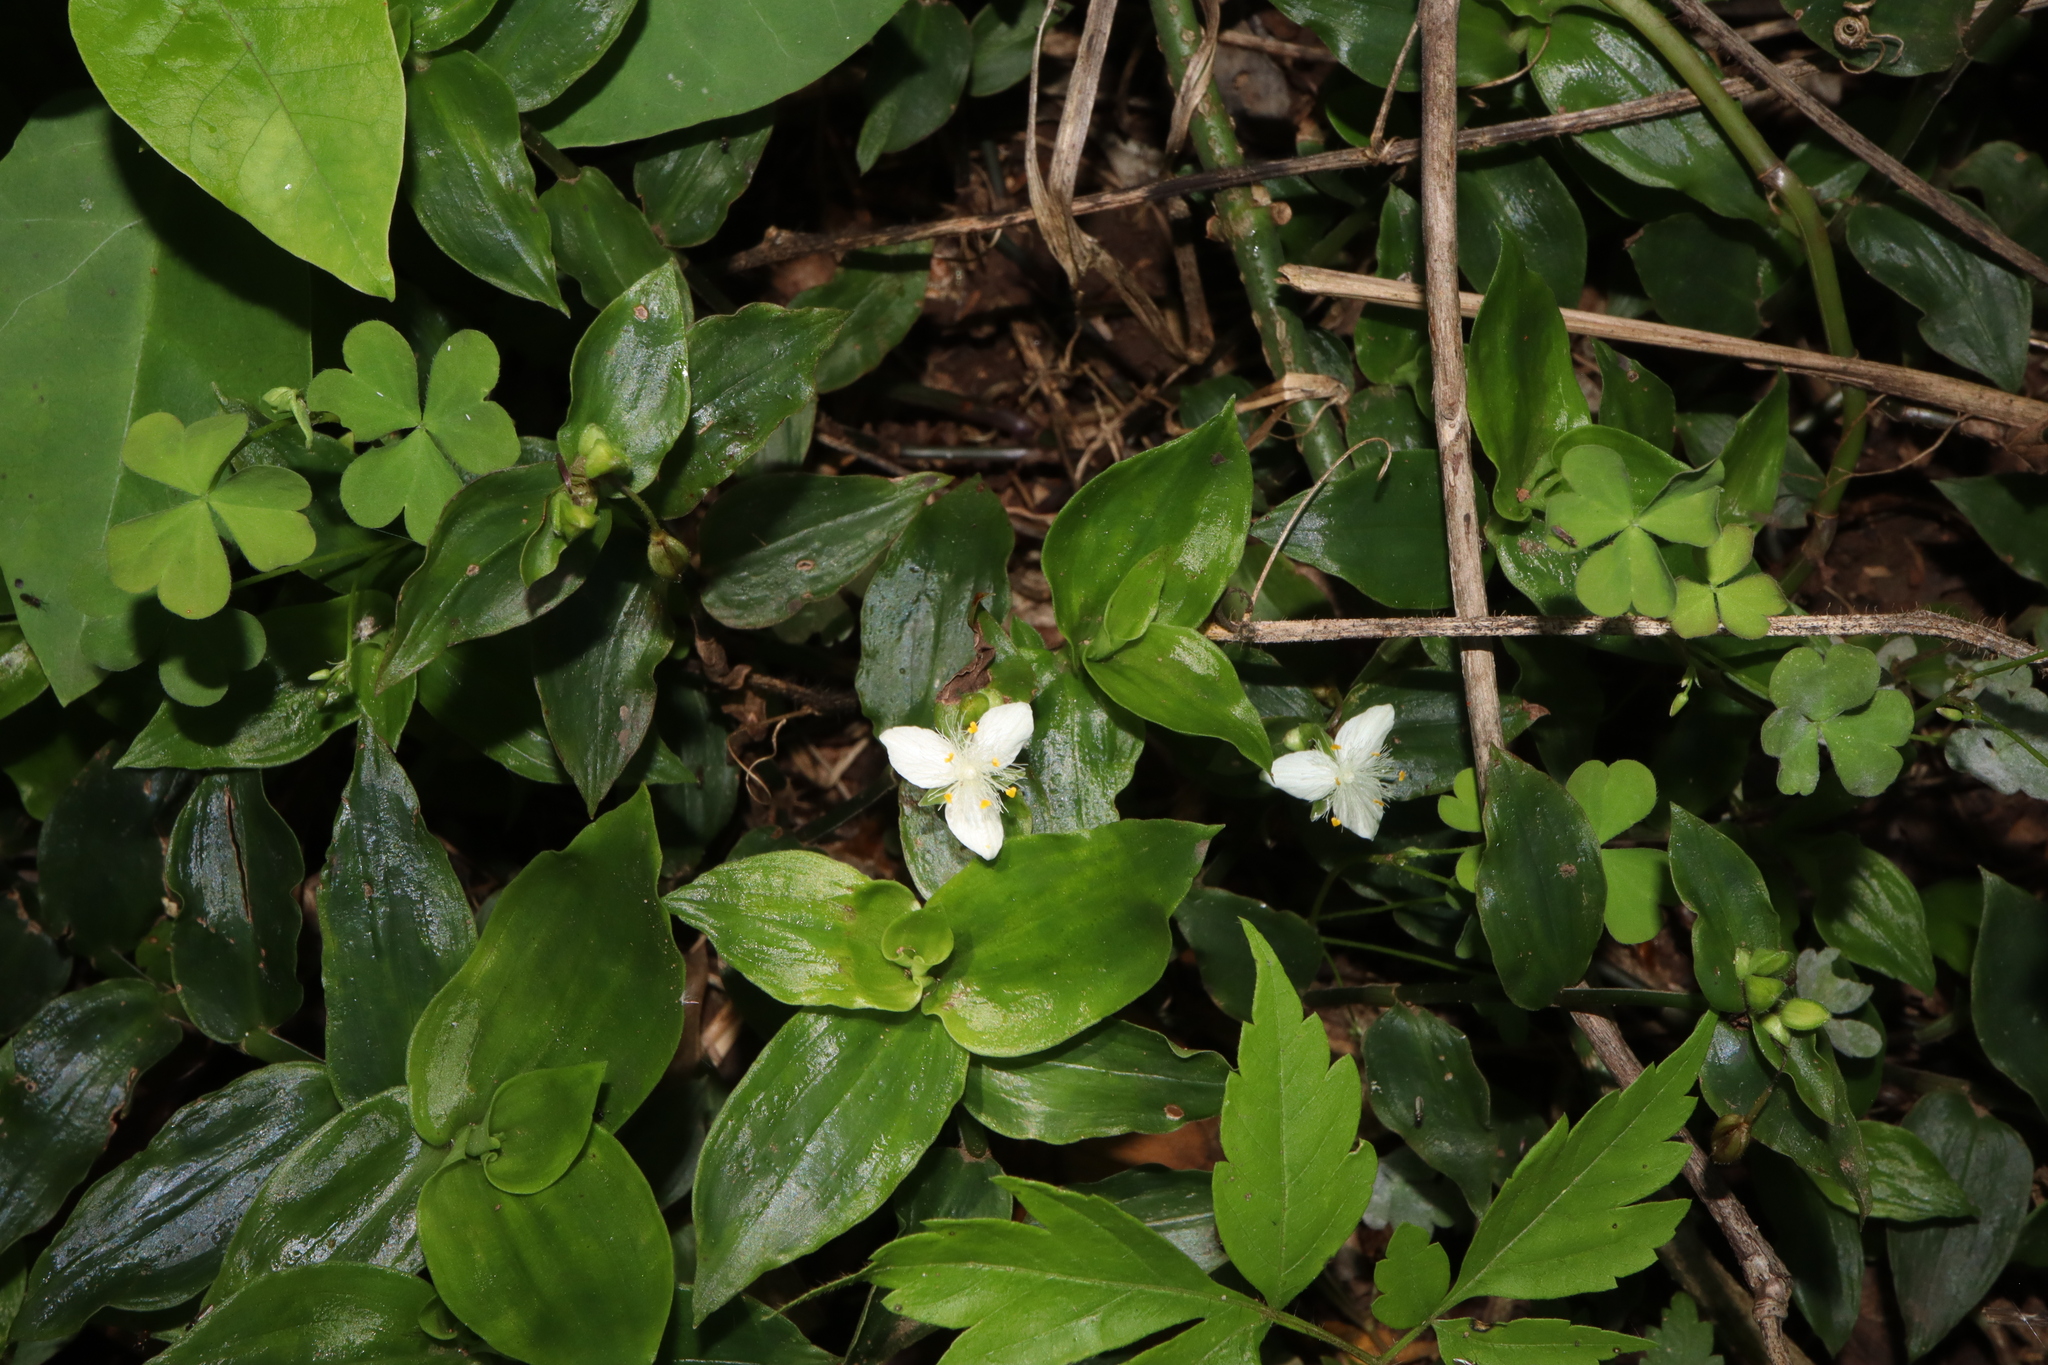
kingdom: Plantae
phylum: Tracheophyta
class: Liliopsida
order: Commelinales
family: Commelinaceae
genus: Tradescantia
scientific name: Tradescantia fluminensis
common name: Wandering-jew
